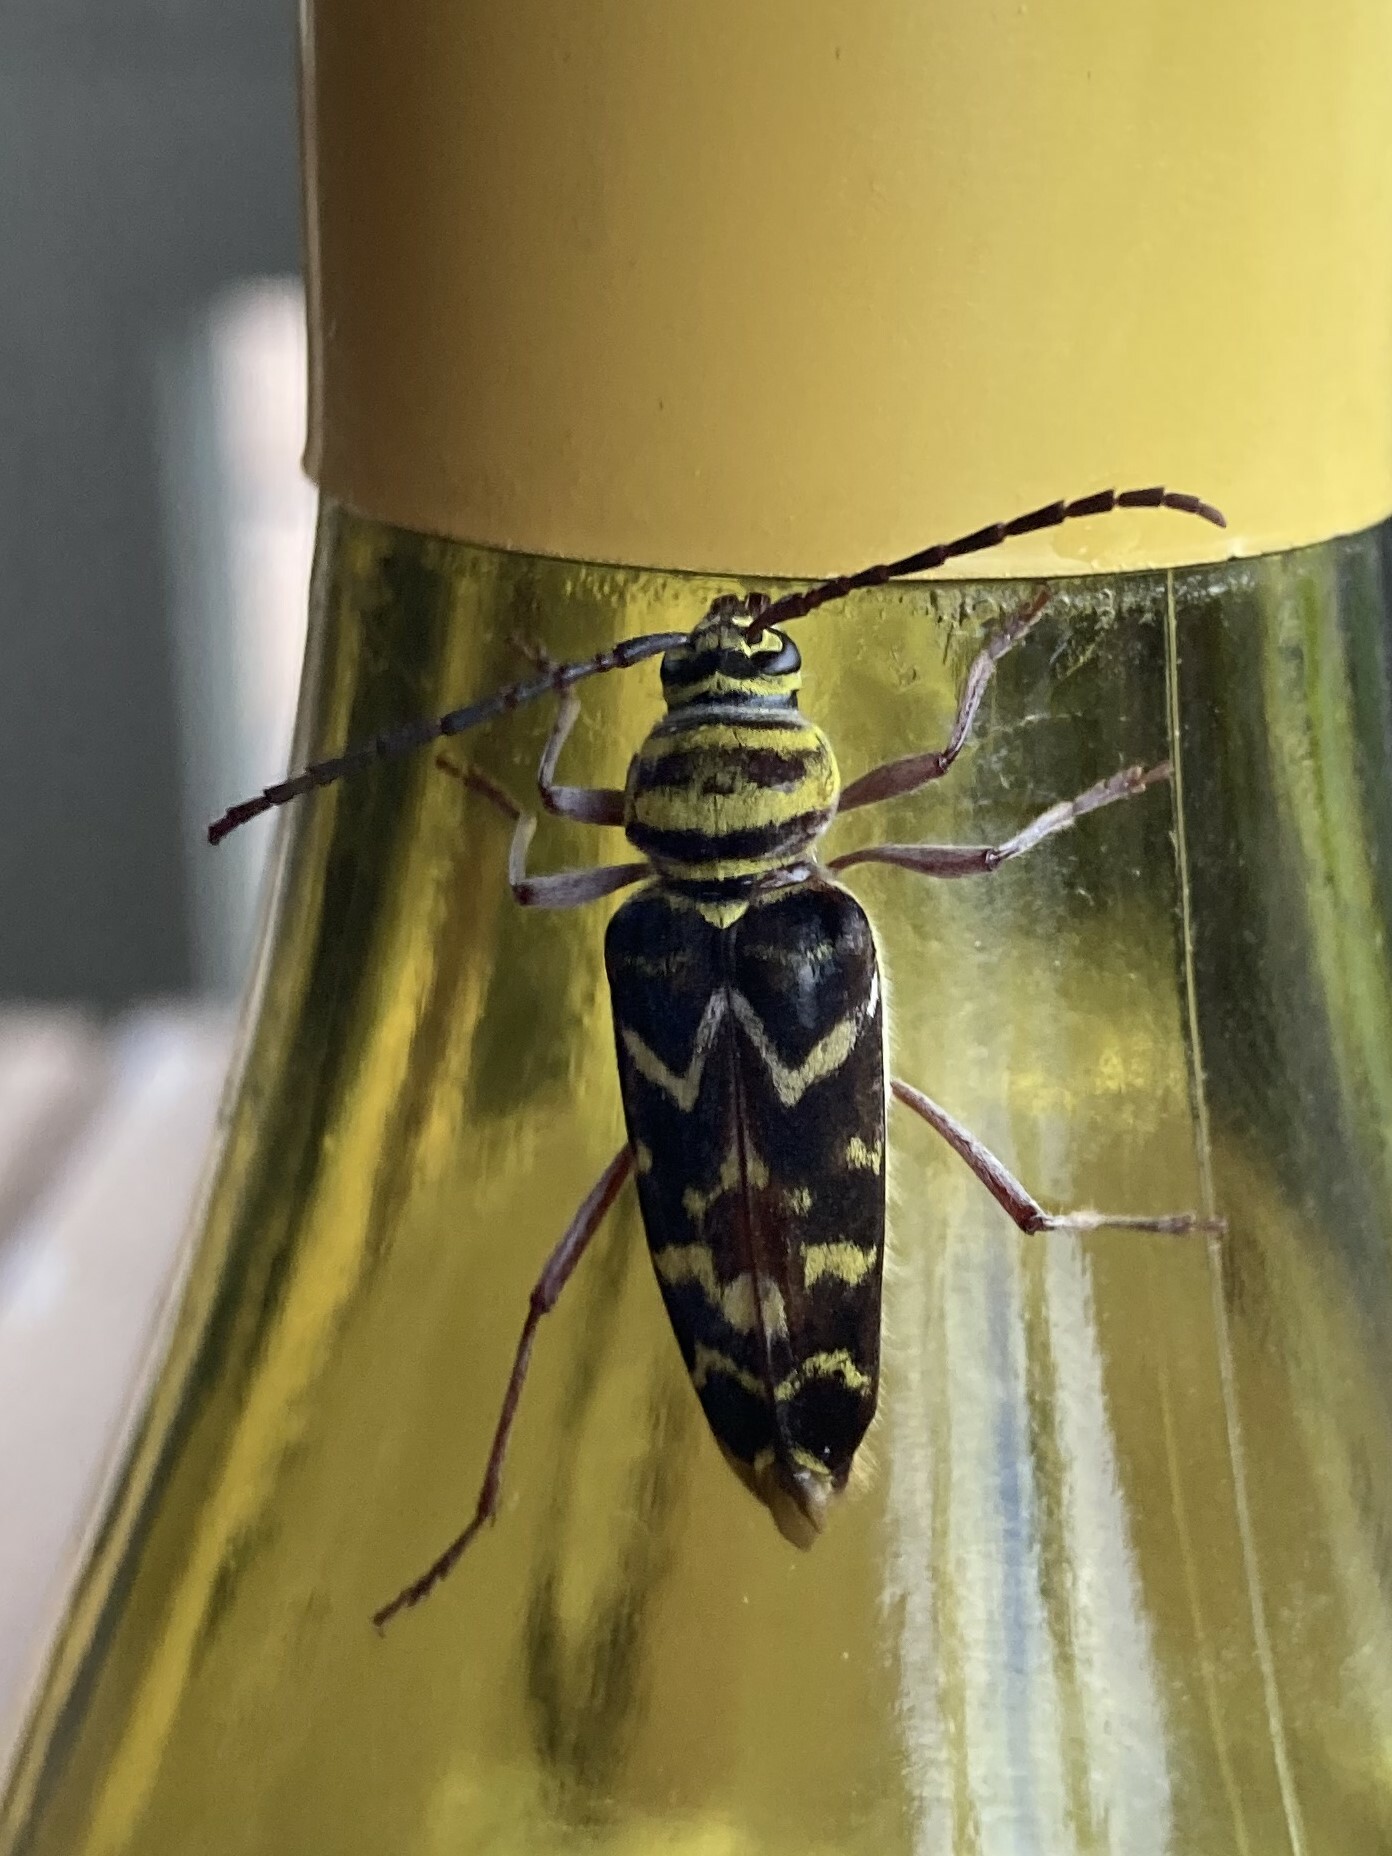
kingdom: Animalia
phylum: Arthropoda
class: Insecta
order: Coleoptera
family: Cerambycidae
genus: Megacyllene
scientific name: Megacyllene caryae
